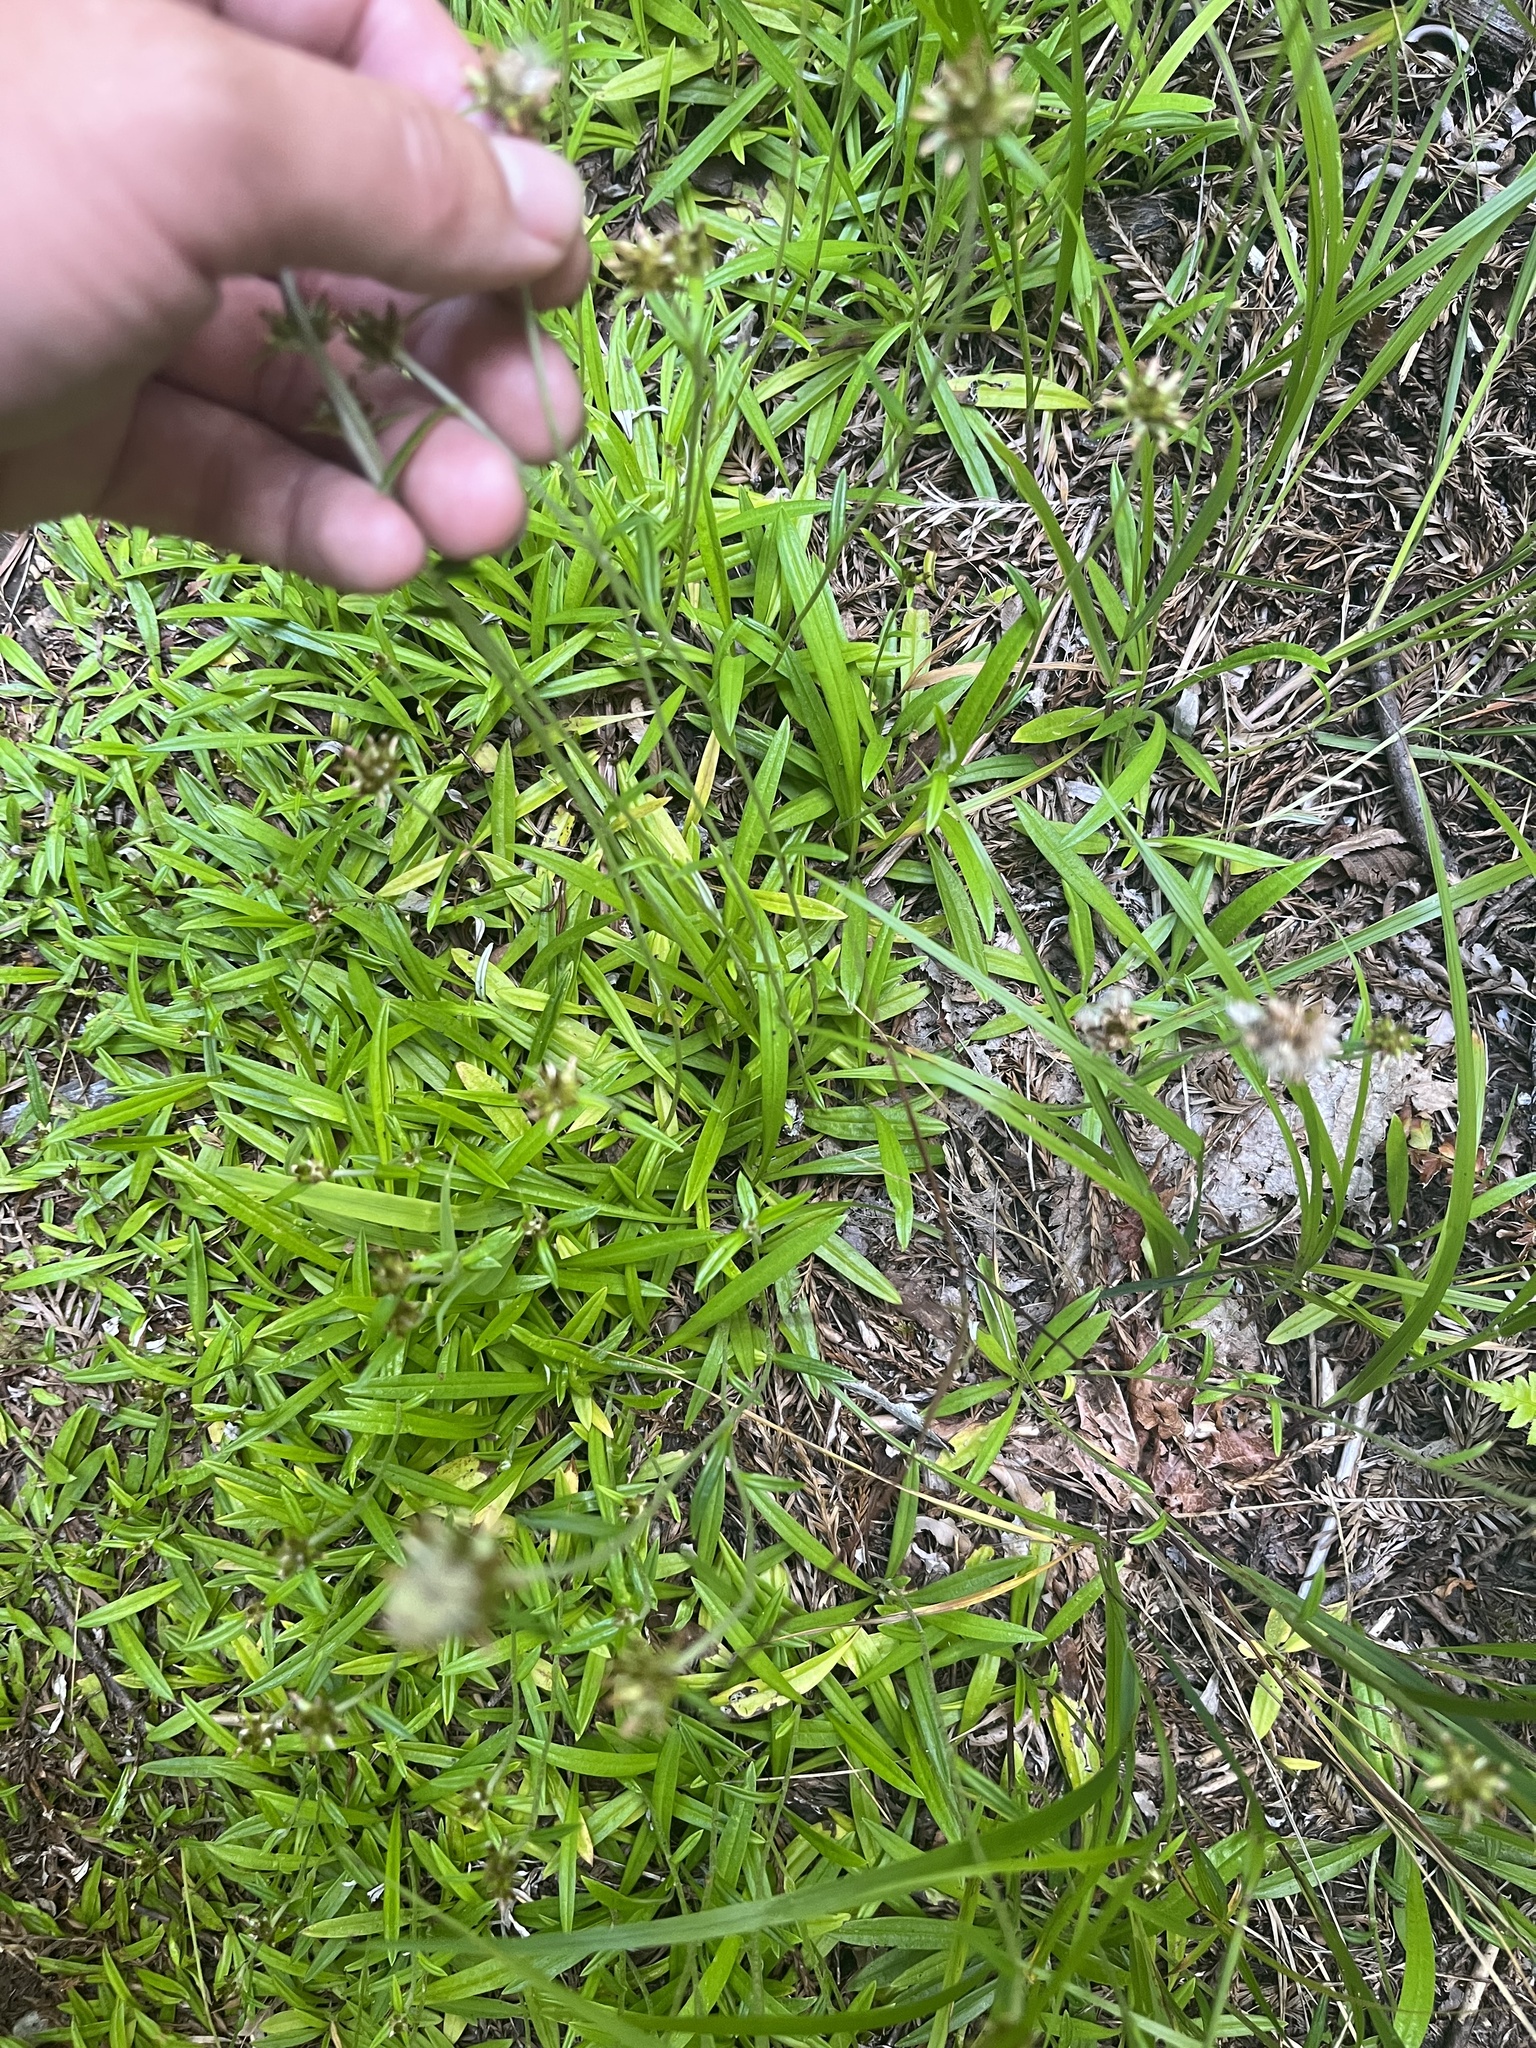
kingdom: Plantae
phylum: Tracheophyta
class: Magnoliopsida
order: Asterales
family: Asteraceae
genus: Euchiton
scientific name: Euchiton gymnocephalus
